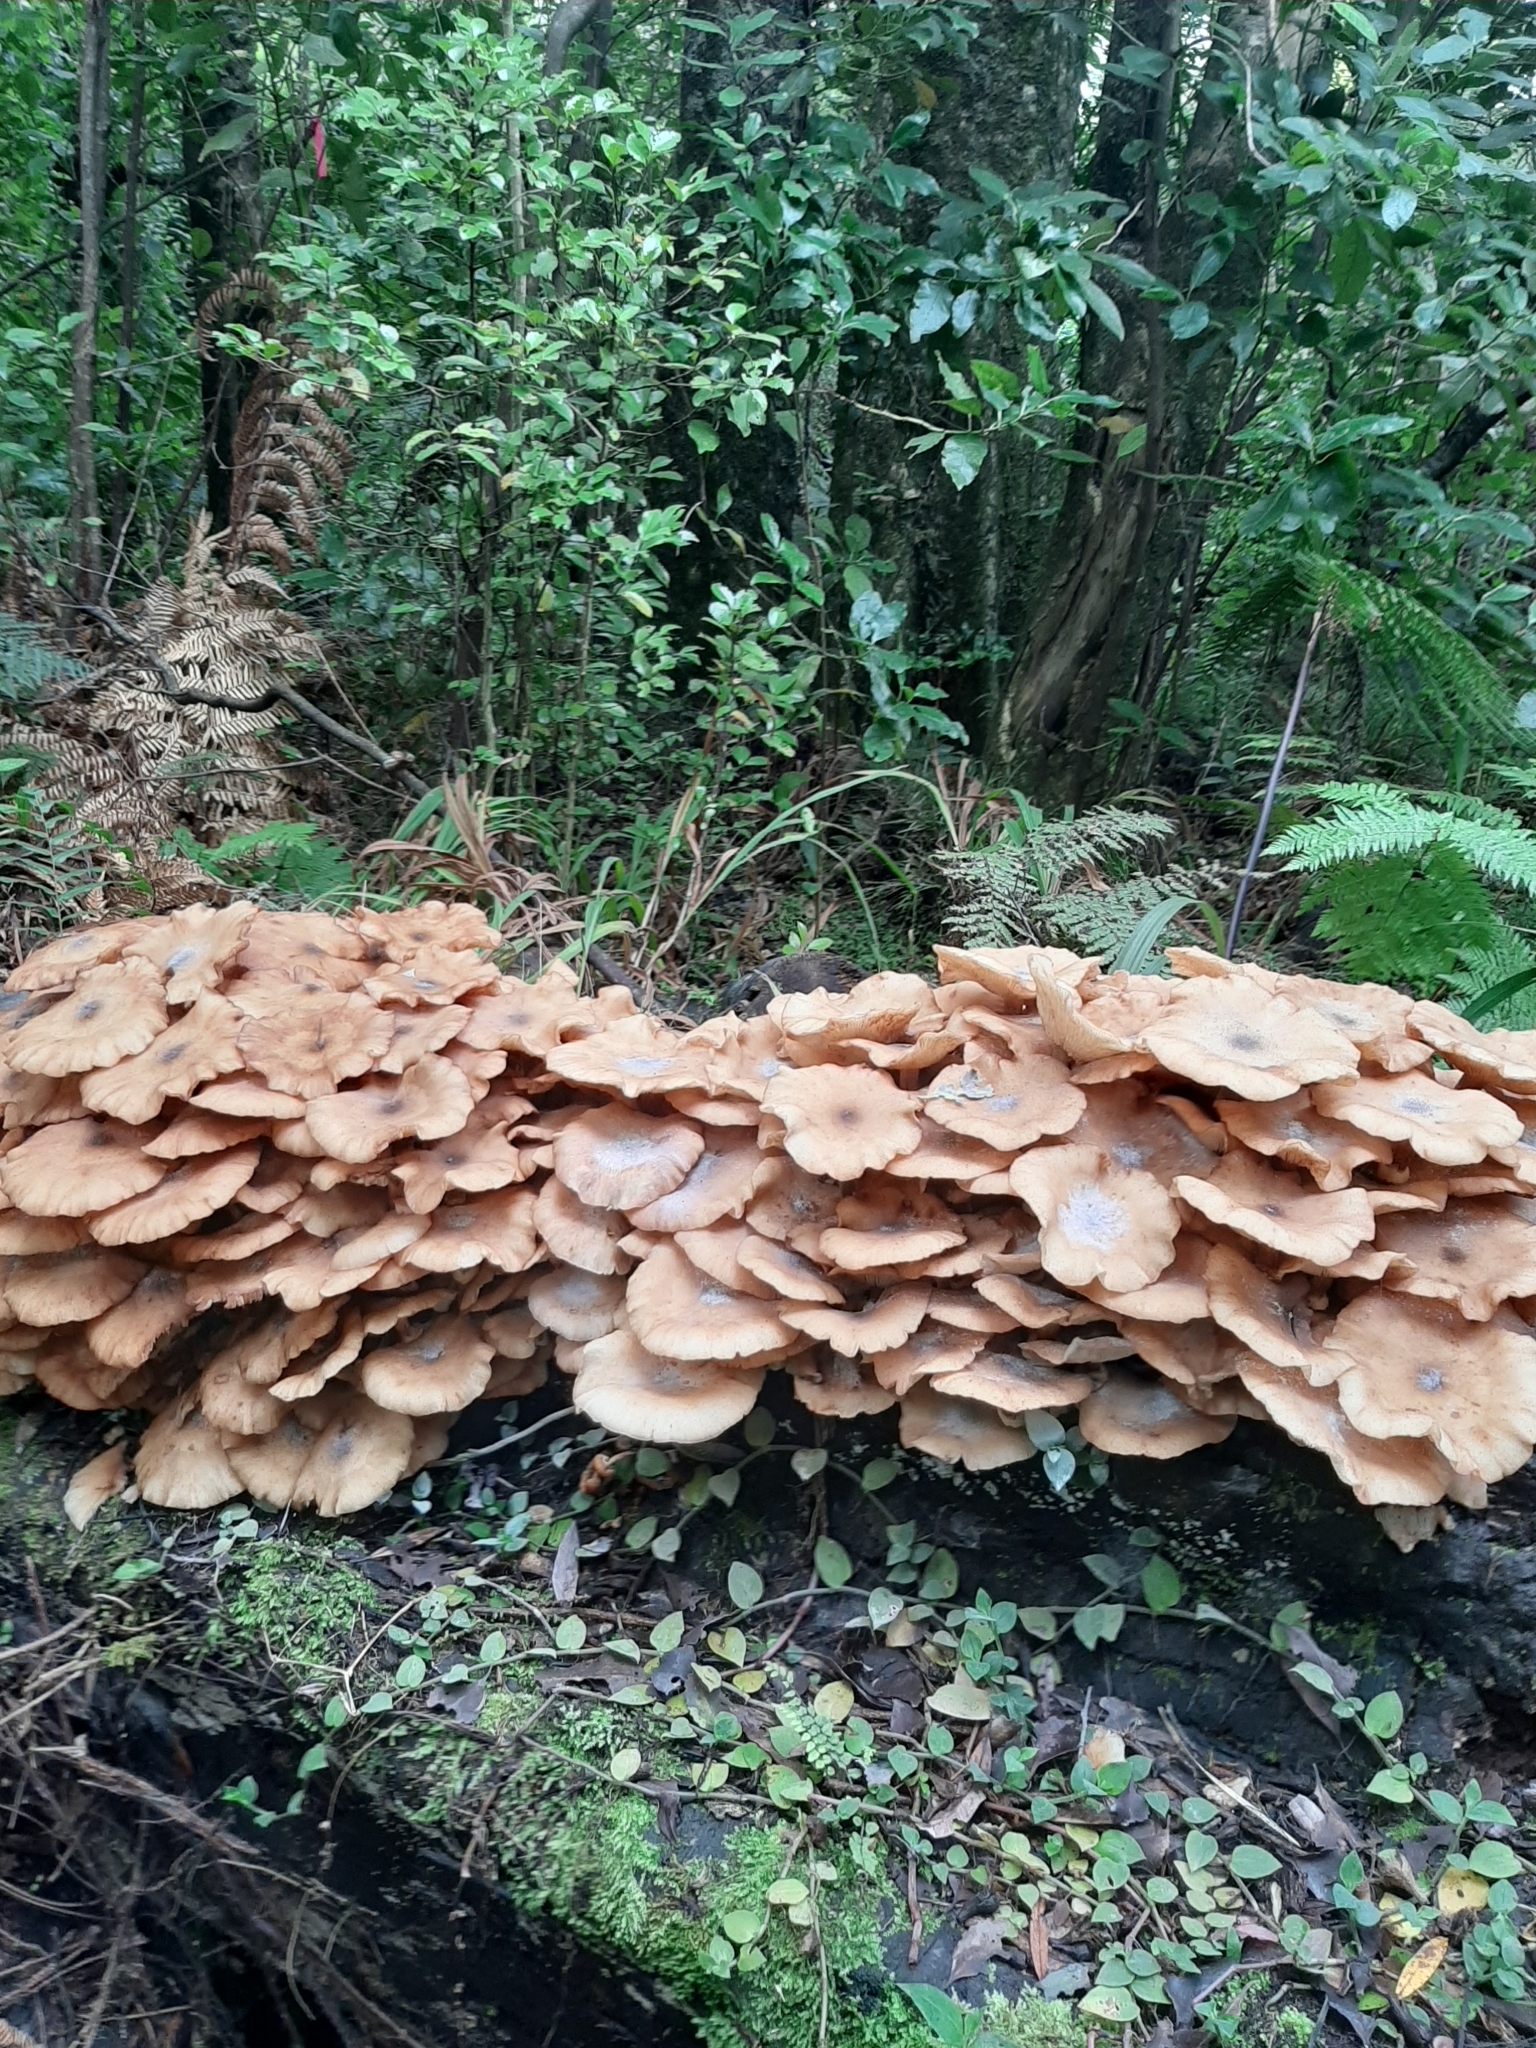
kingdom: Fungi
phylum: Basidiomycota
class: Agaricomycetes
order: Agaricales
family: Physalacriaceae
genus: Armillaria
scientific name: Armillaria novae-zelandiae
